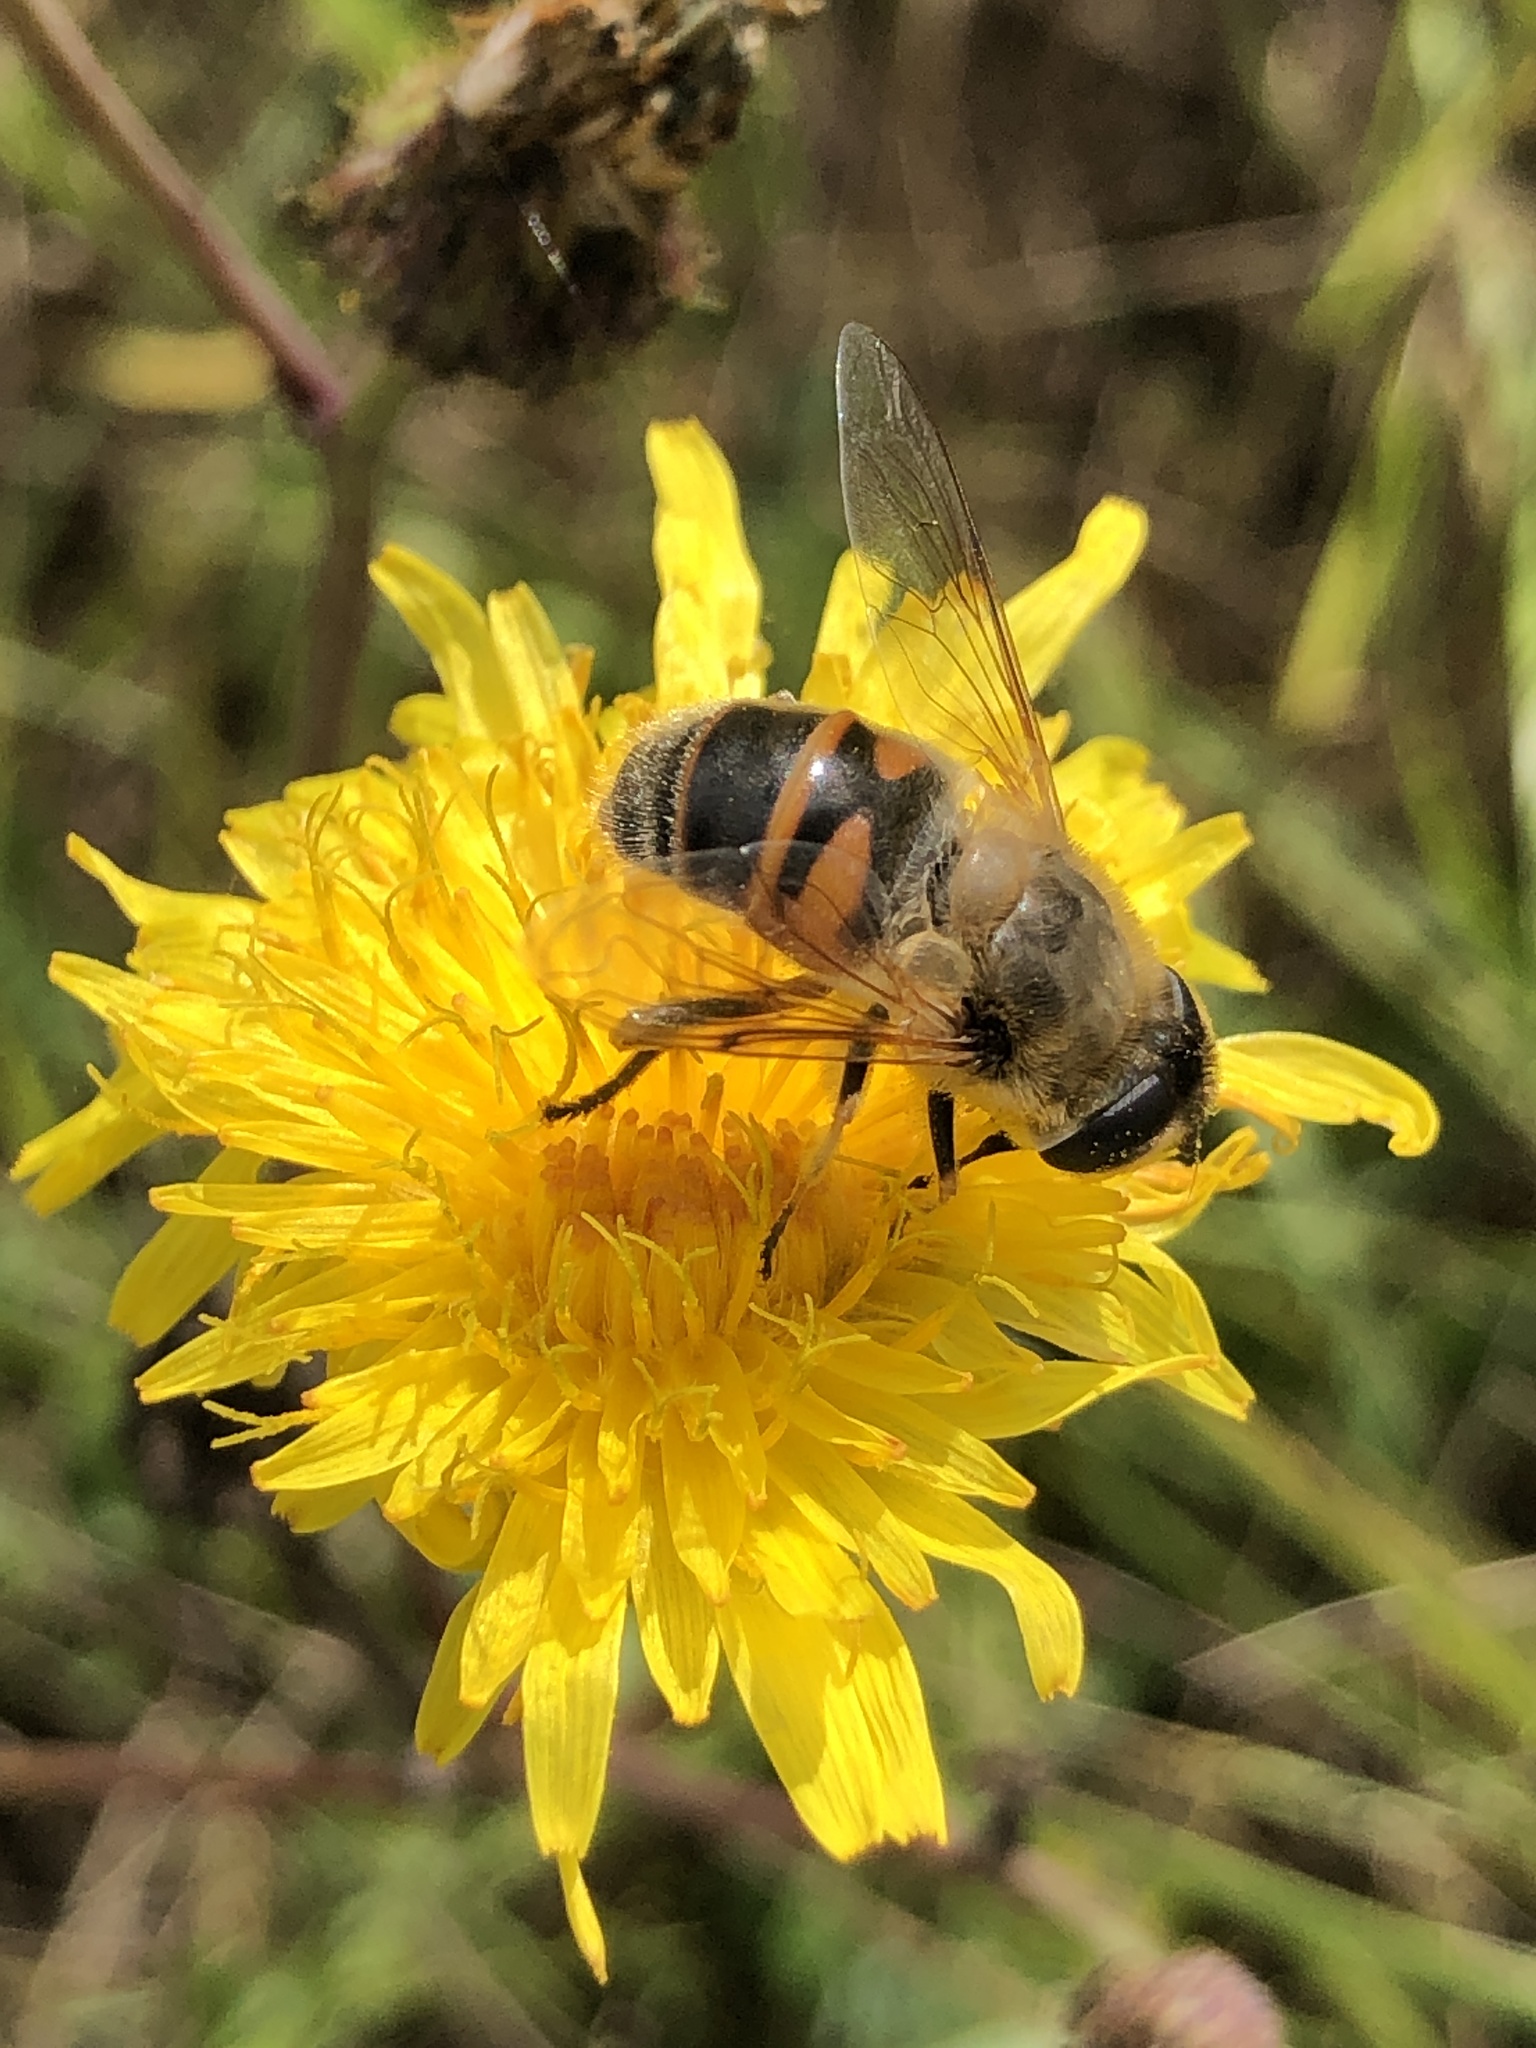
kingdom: Animalia
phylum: Arthropoda
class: Insecta
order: Diptera
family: Syrphidae
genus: Eristalis
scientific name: Eristalis tenax
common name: Drone fly
